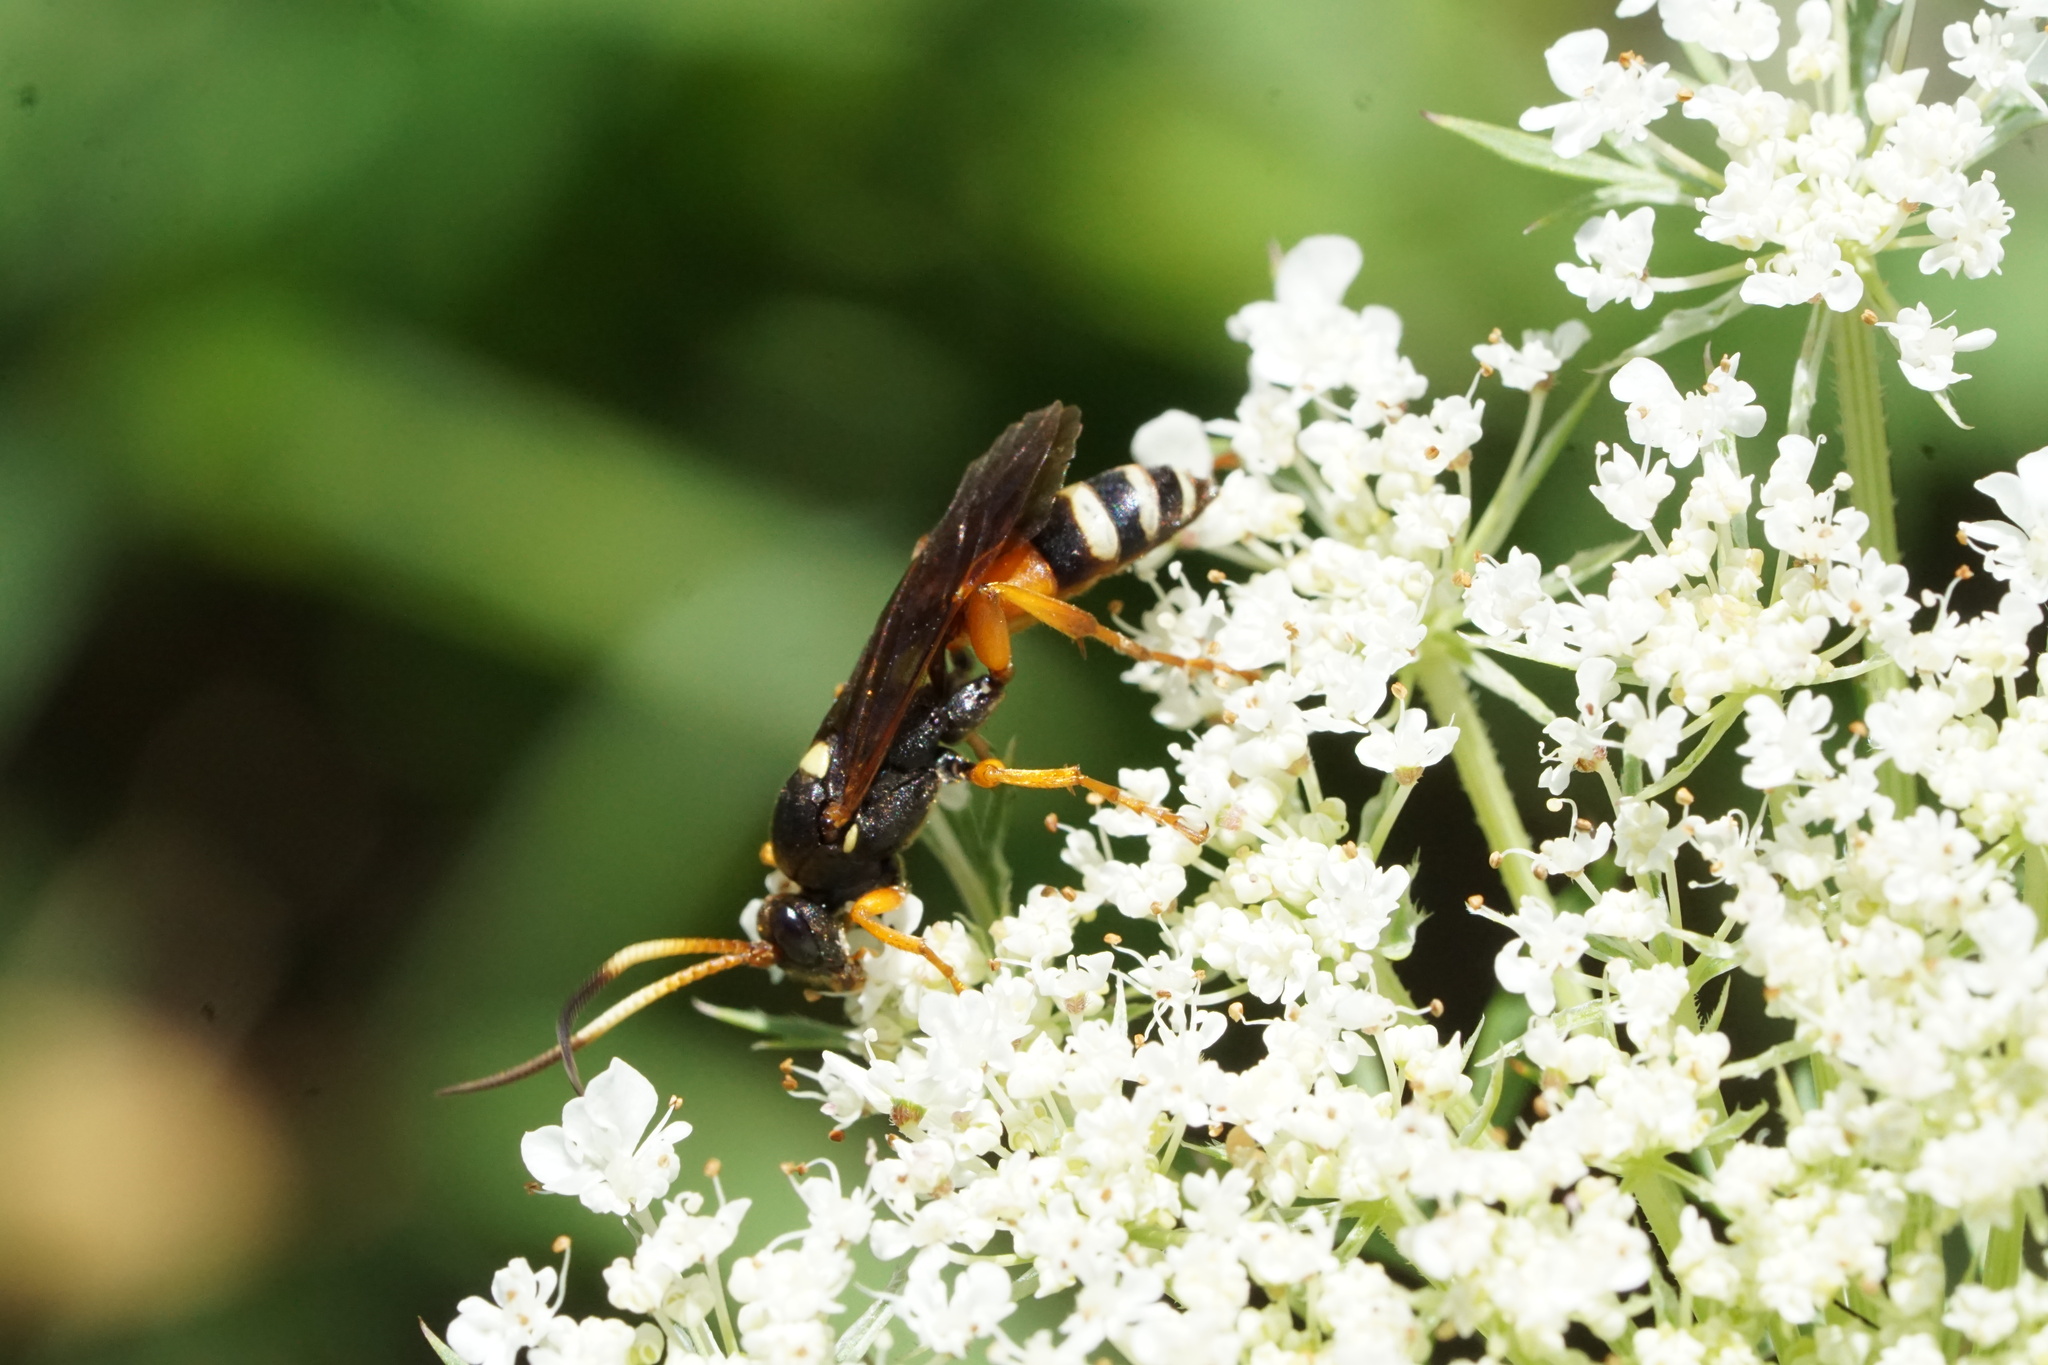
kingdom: Animalia
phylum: Arthropoda
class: Insecta
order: Hymenoptera
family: Ichneumonidae
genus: Ichneumon
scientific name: Ichneumon ambulatorius
